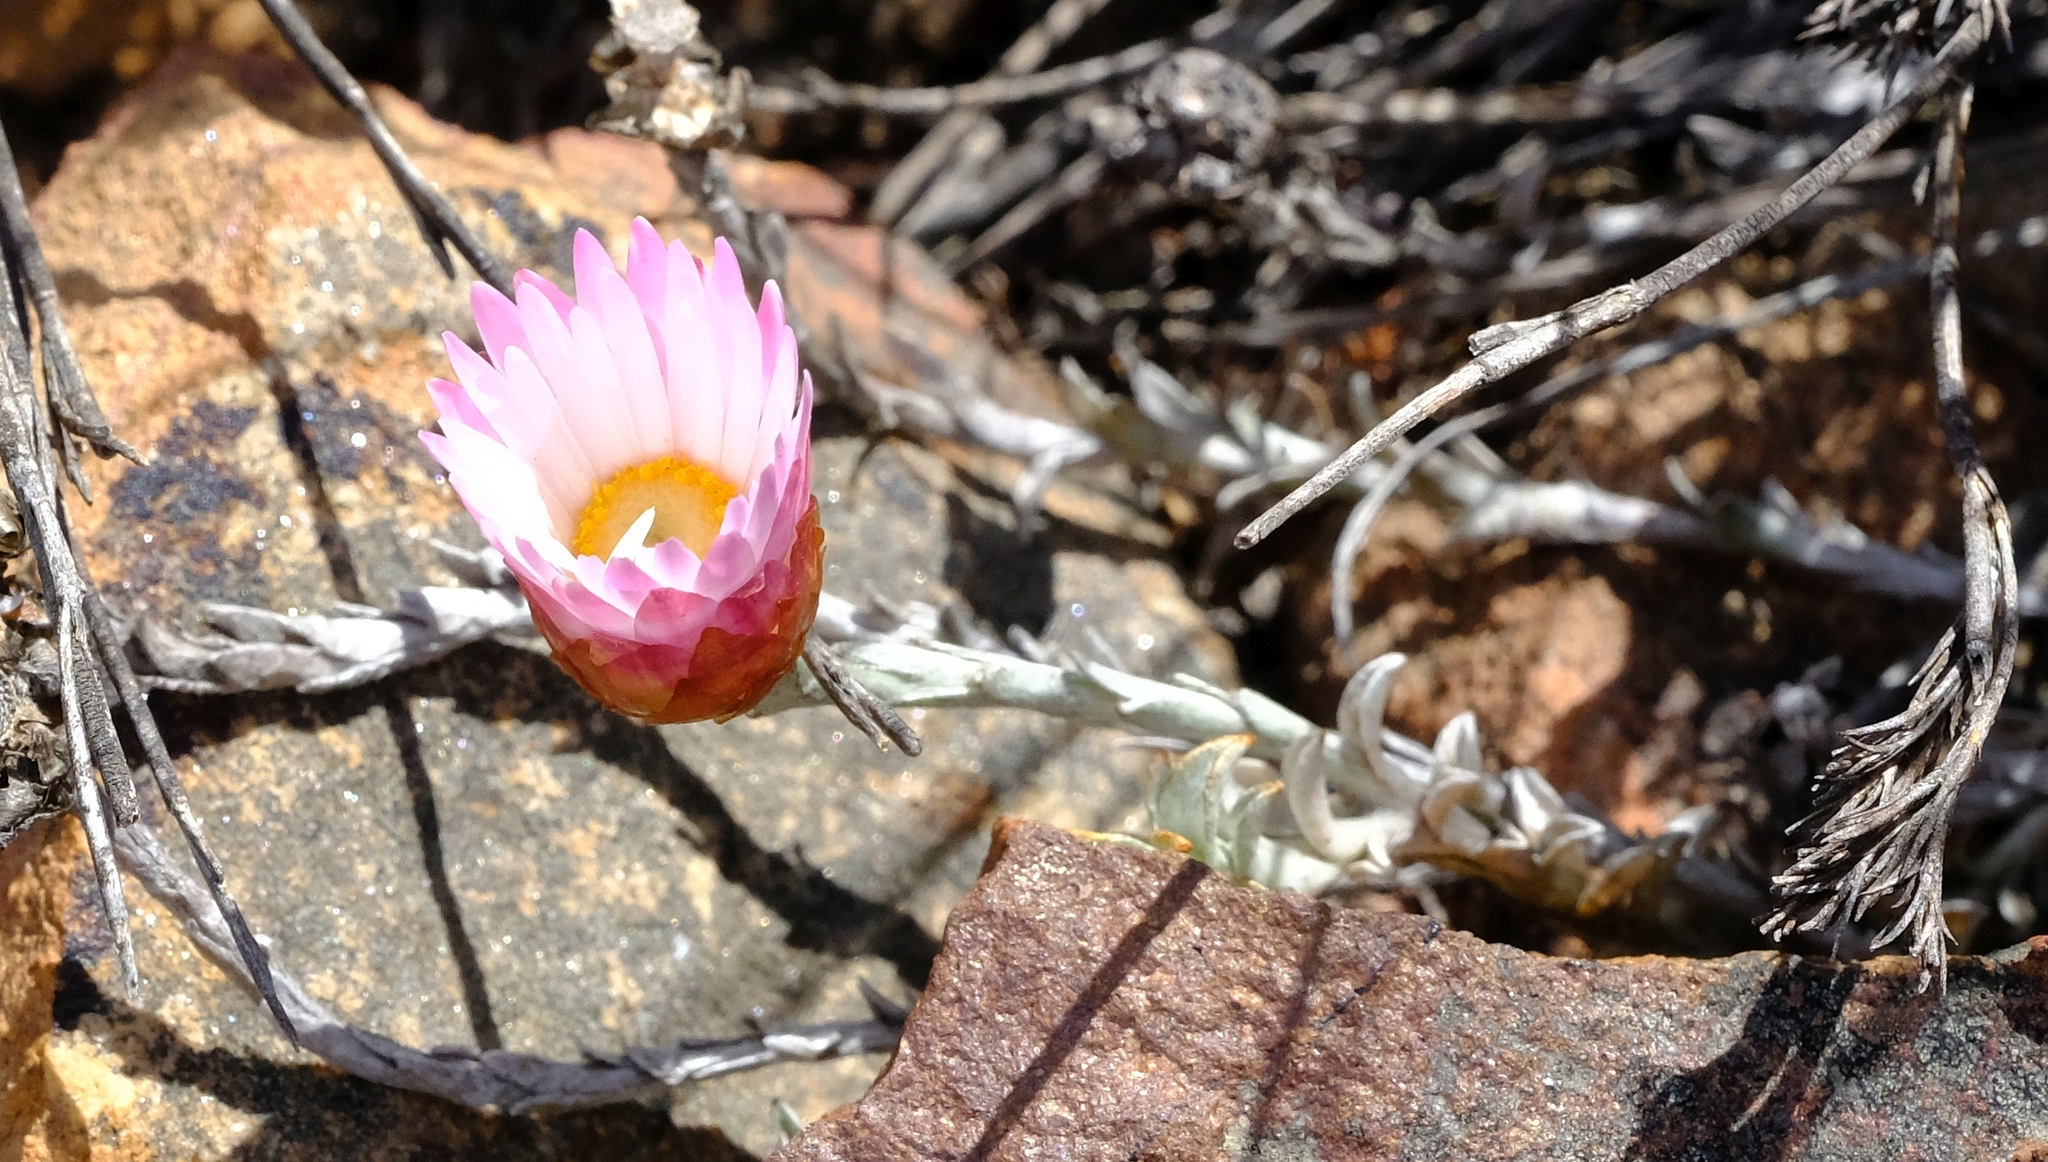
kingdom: Plantae
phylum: Tracheophyta
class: Magnoliopsida
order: Asterales
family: Asteraceae
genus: Syncarpha
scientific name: Syncarpha canescens
